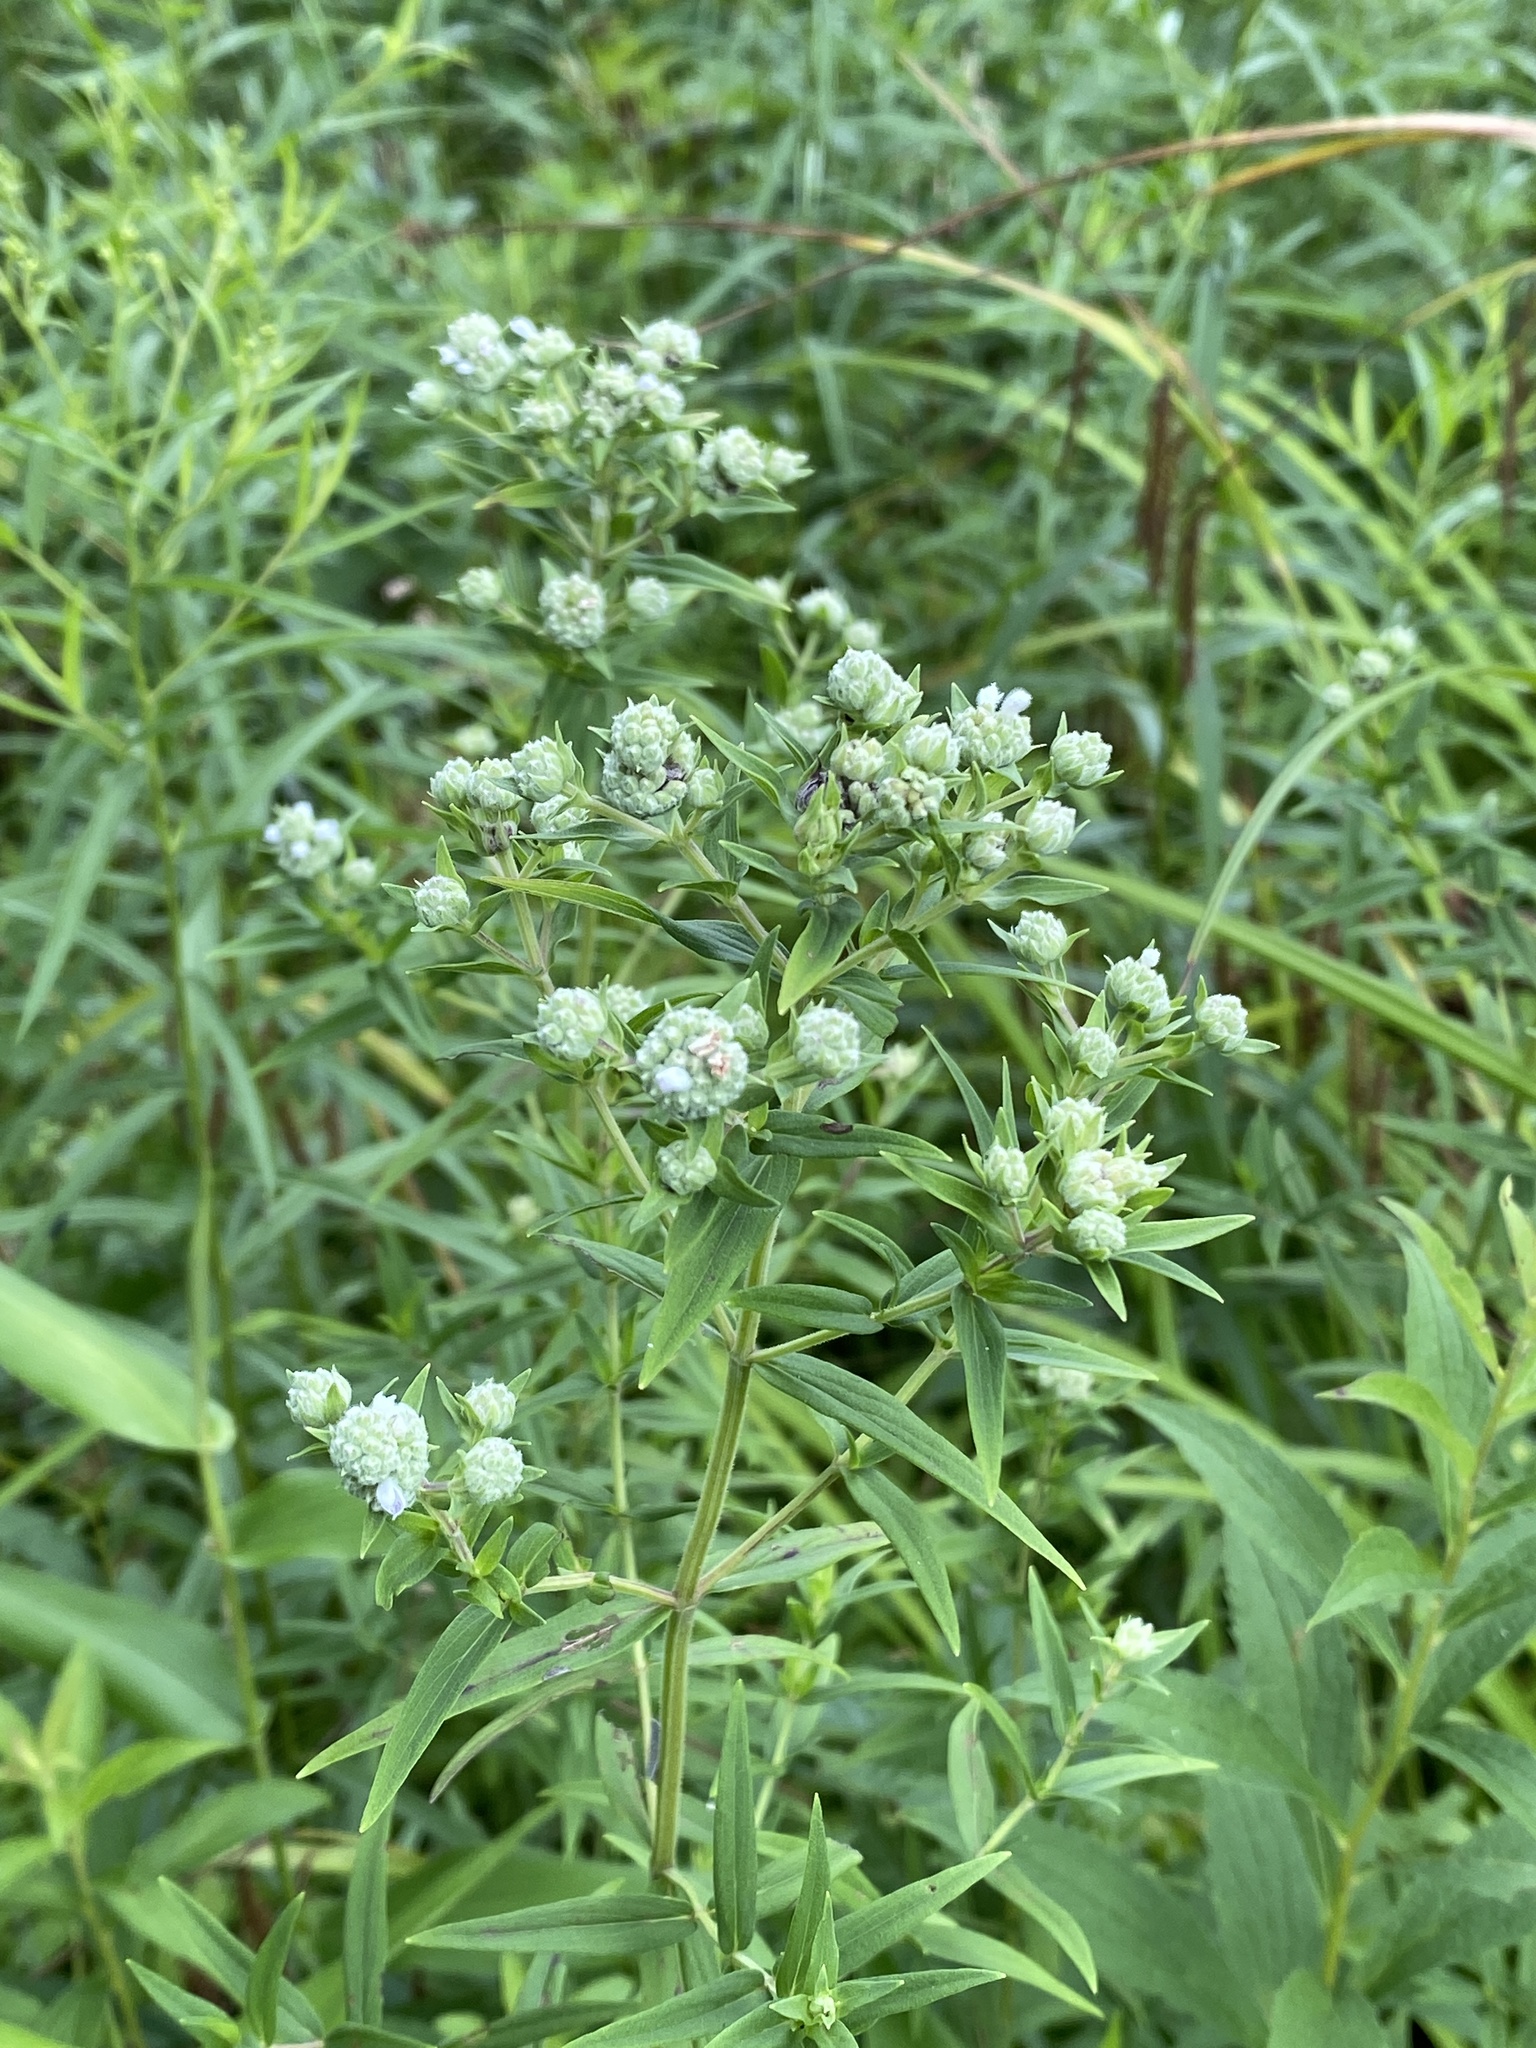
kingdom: Plantae
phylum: Tracheophyta
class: Magnoliopsida
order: Lamiales
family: Lamiaceae
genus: Pycnanthemum
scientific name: Pycnanthemum virginianum
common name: Virginia mountain-mint
